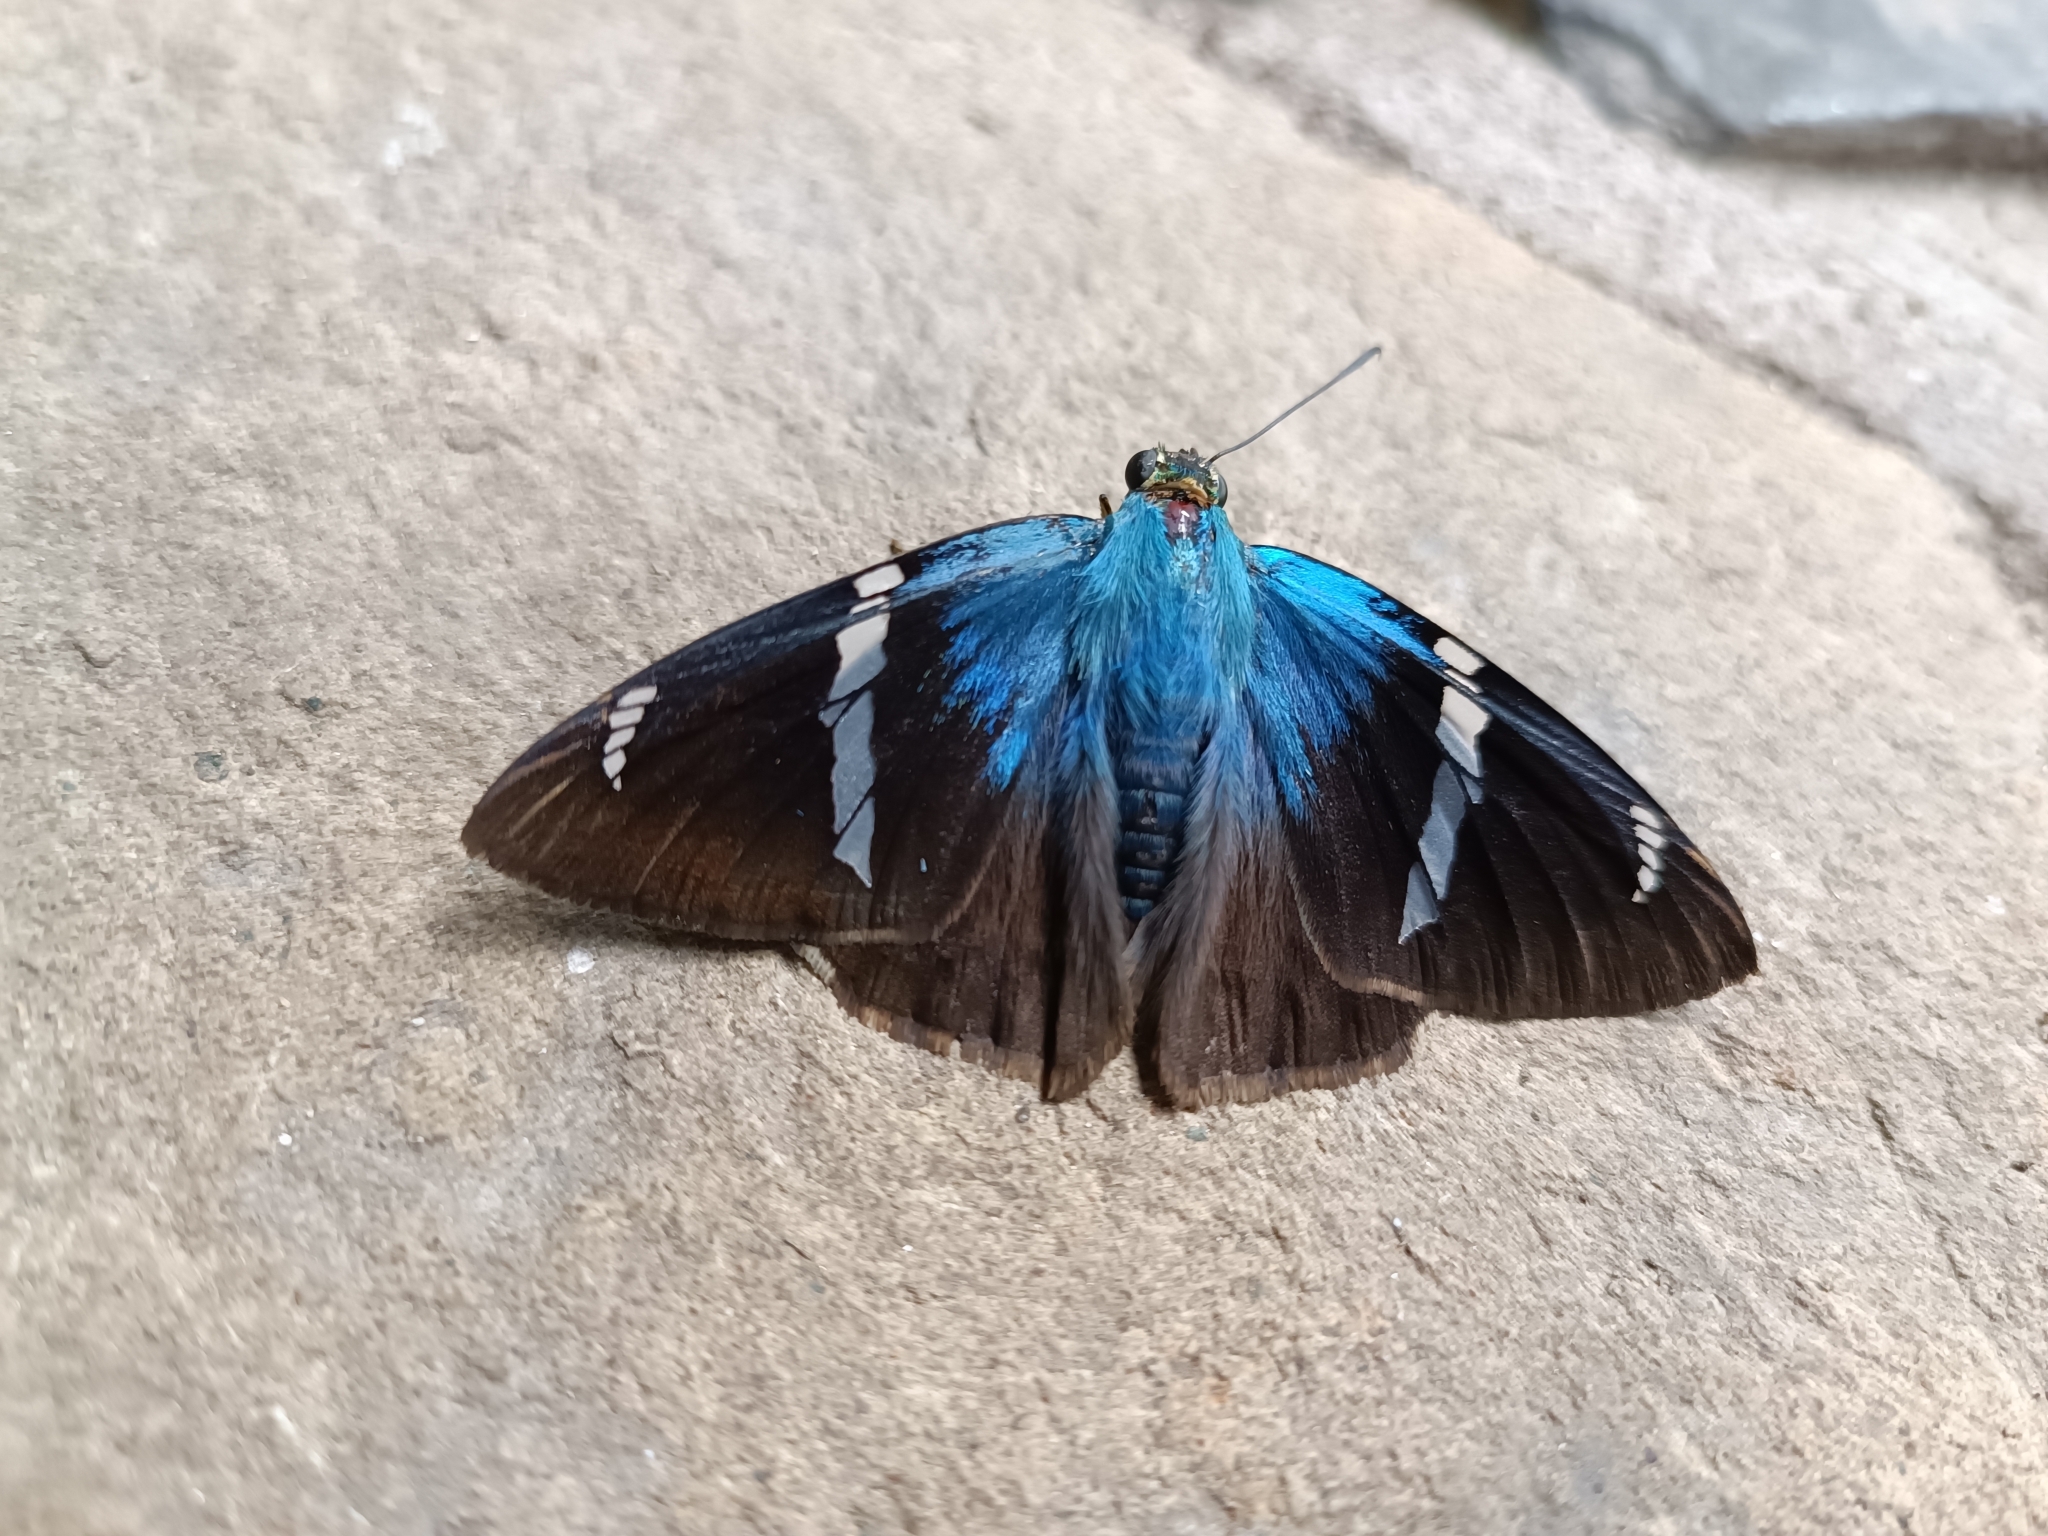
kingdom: Animalia
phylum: Arthropoda
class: Insecta
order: Lepidoptera
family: Hesperiidae
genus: Astraptes
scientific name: Astraptes fulgerator
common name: Two-barred flasher
